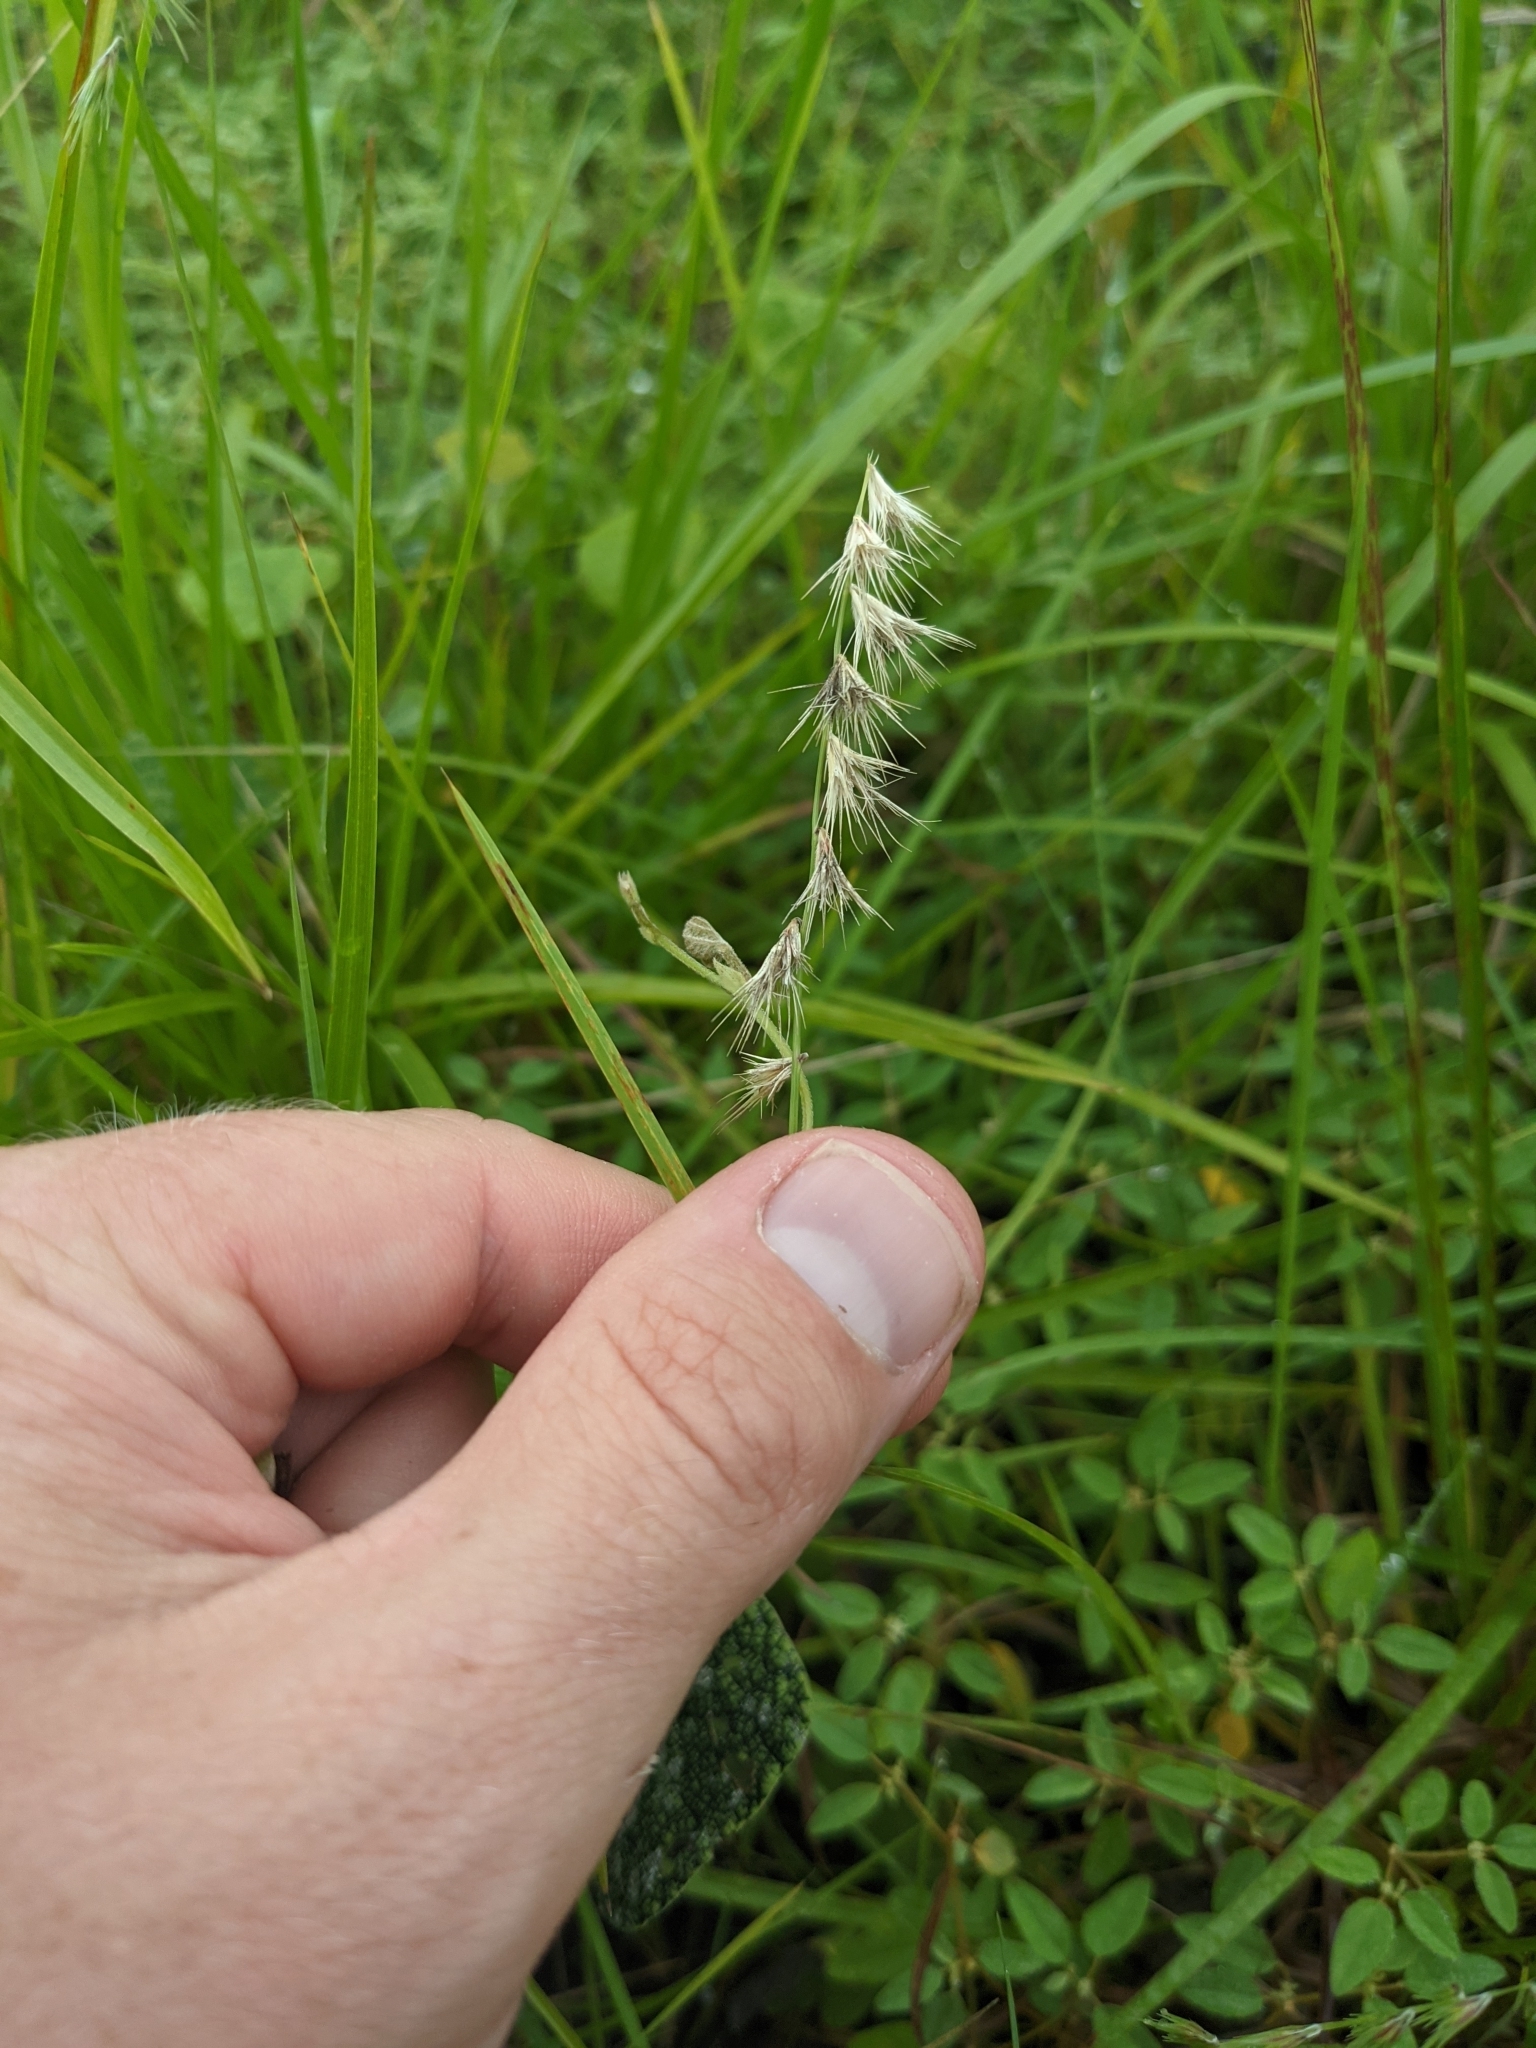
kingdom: Plantae
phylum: Tracheophyta
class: Liliopsida
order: Poales
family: Poaceae
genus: Bouteloua
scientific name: Bouteloua rigidiseta
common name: Texas grama
